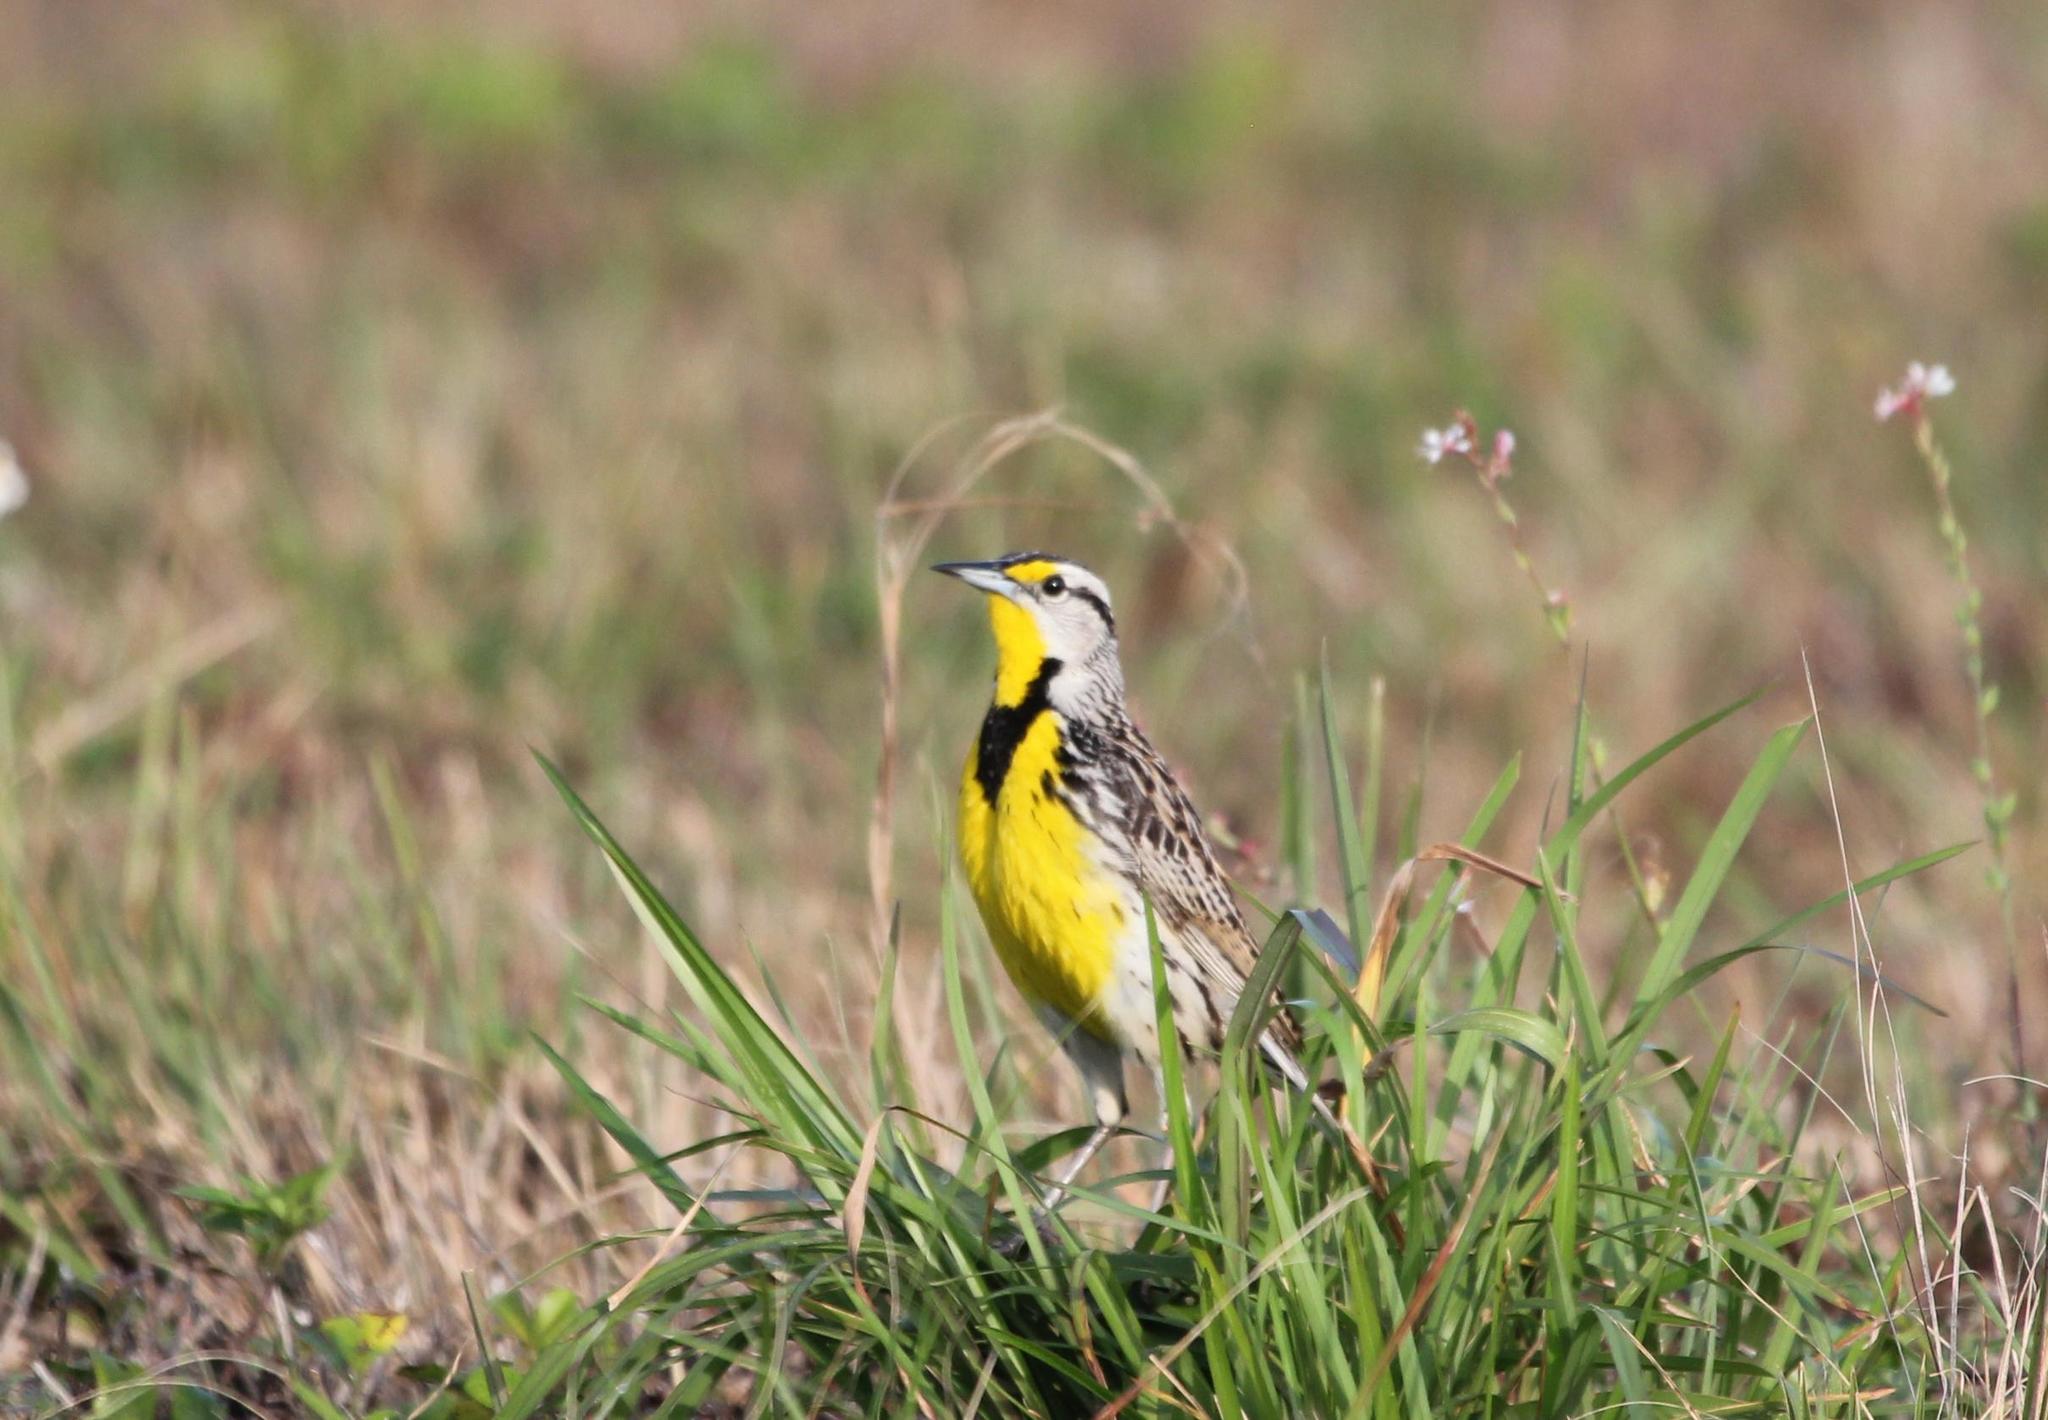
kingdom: Animalia
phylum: Chordata
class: Aves
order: Passeriformes
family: Icteridae
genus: Sturnella
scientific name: Sturnella magna
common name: Eastern meadowlark
